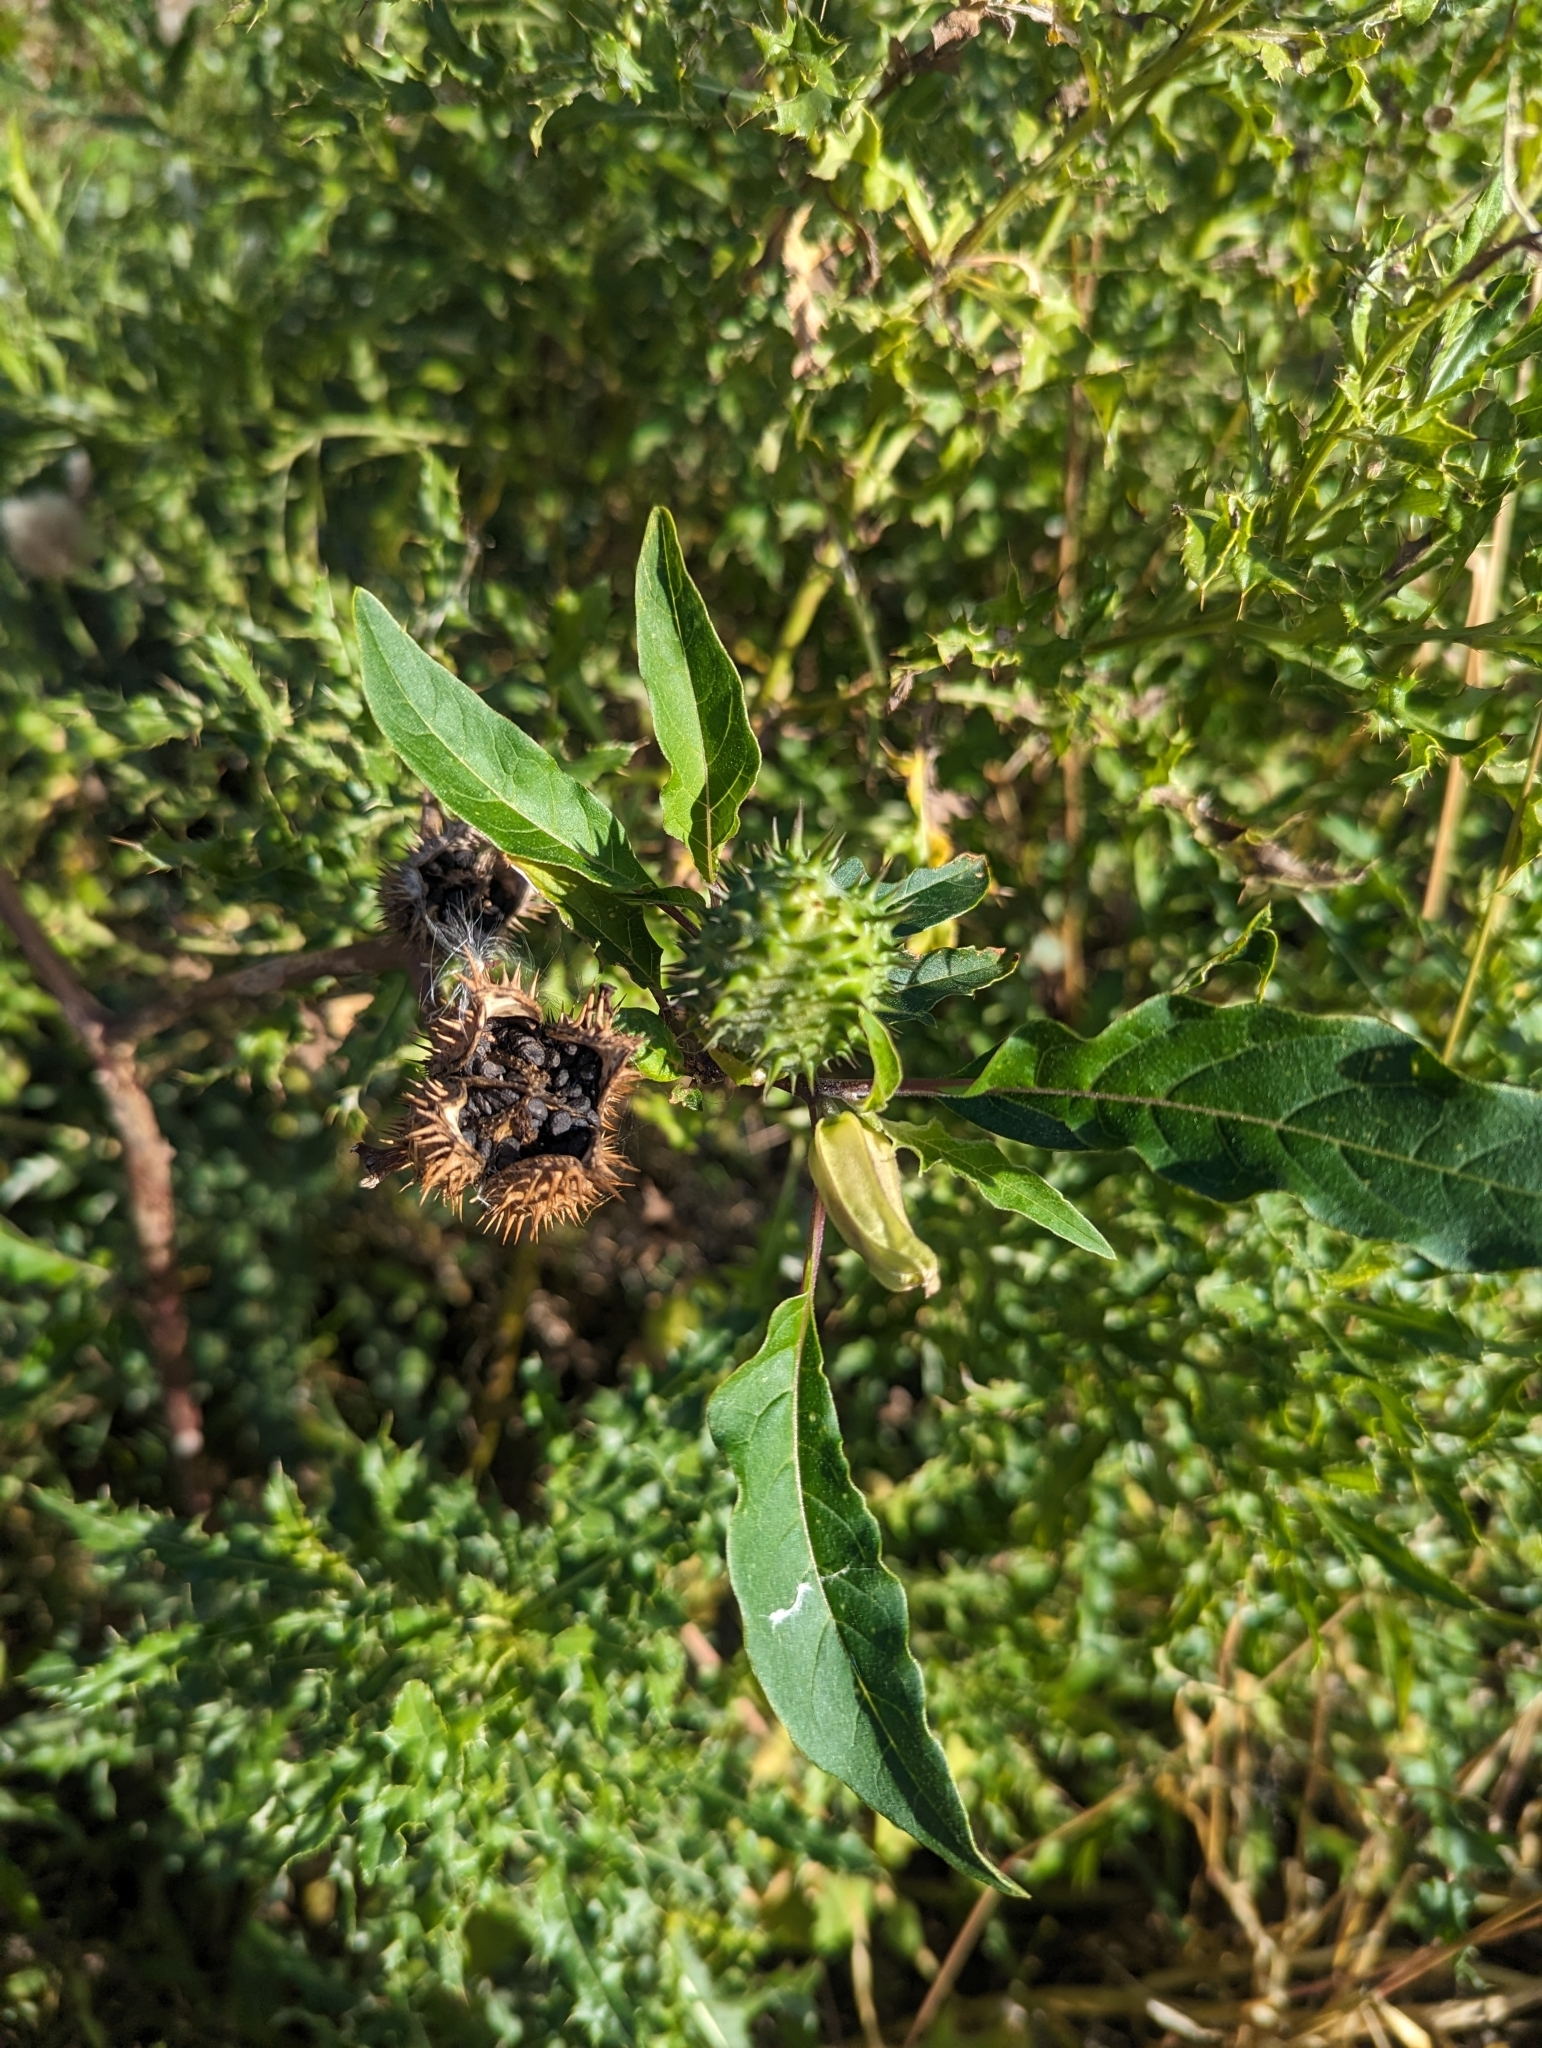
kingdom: Plantae
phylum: Tracheophyta
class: Magnoliopsida
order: Solanales
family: Solanaceae
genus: Datura
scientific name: Datura stramonium
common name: Thorn-apple
